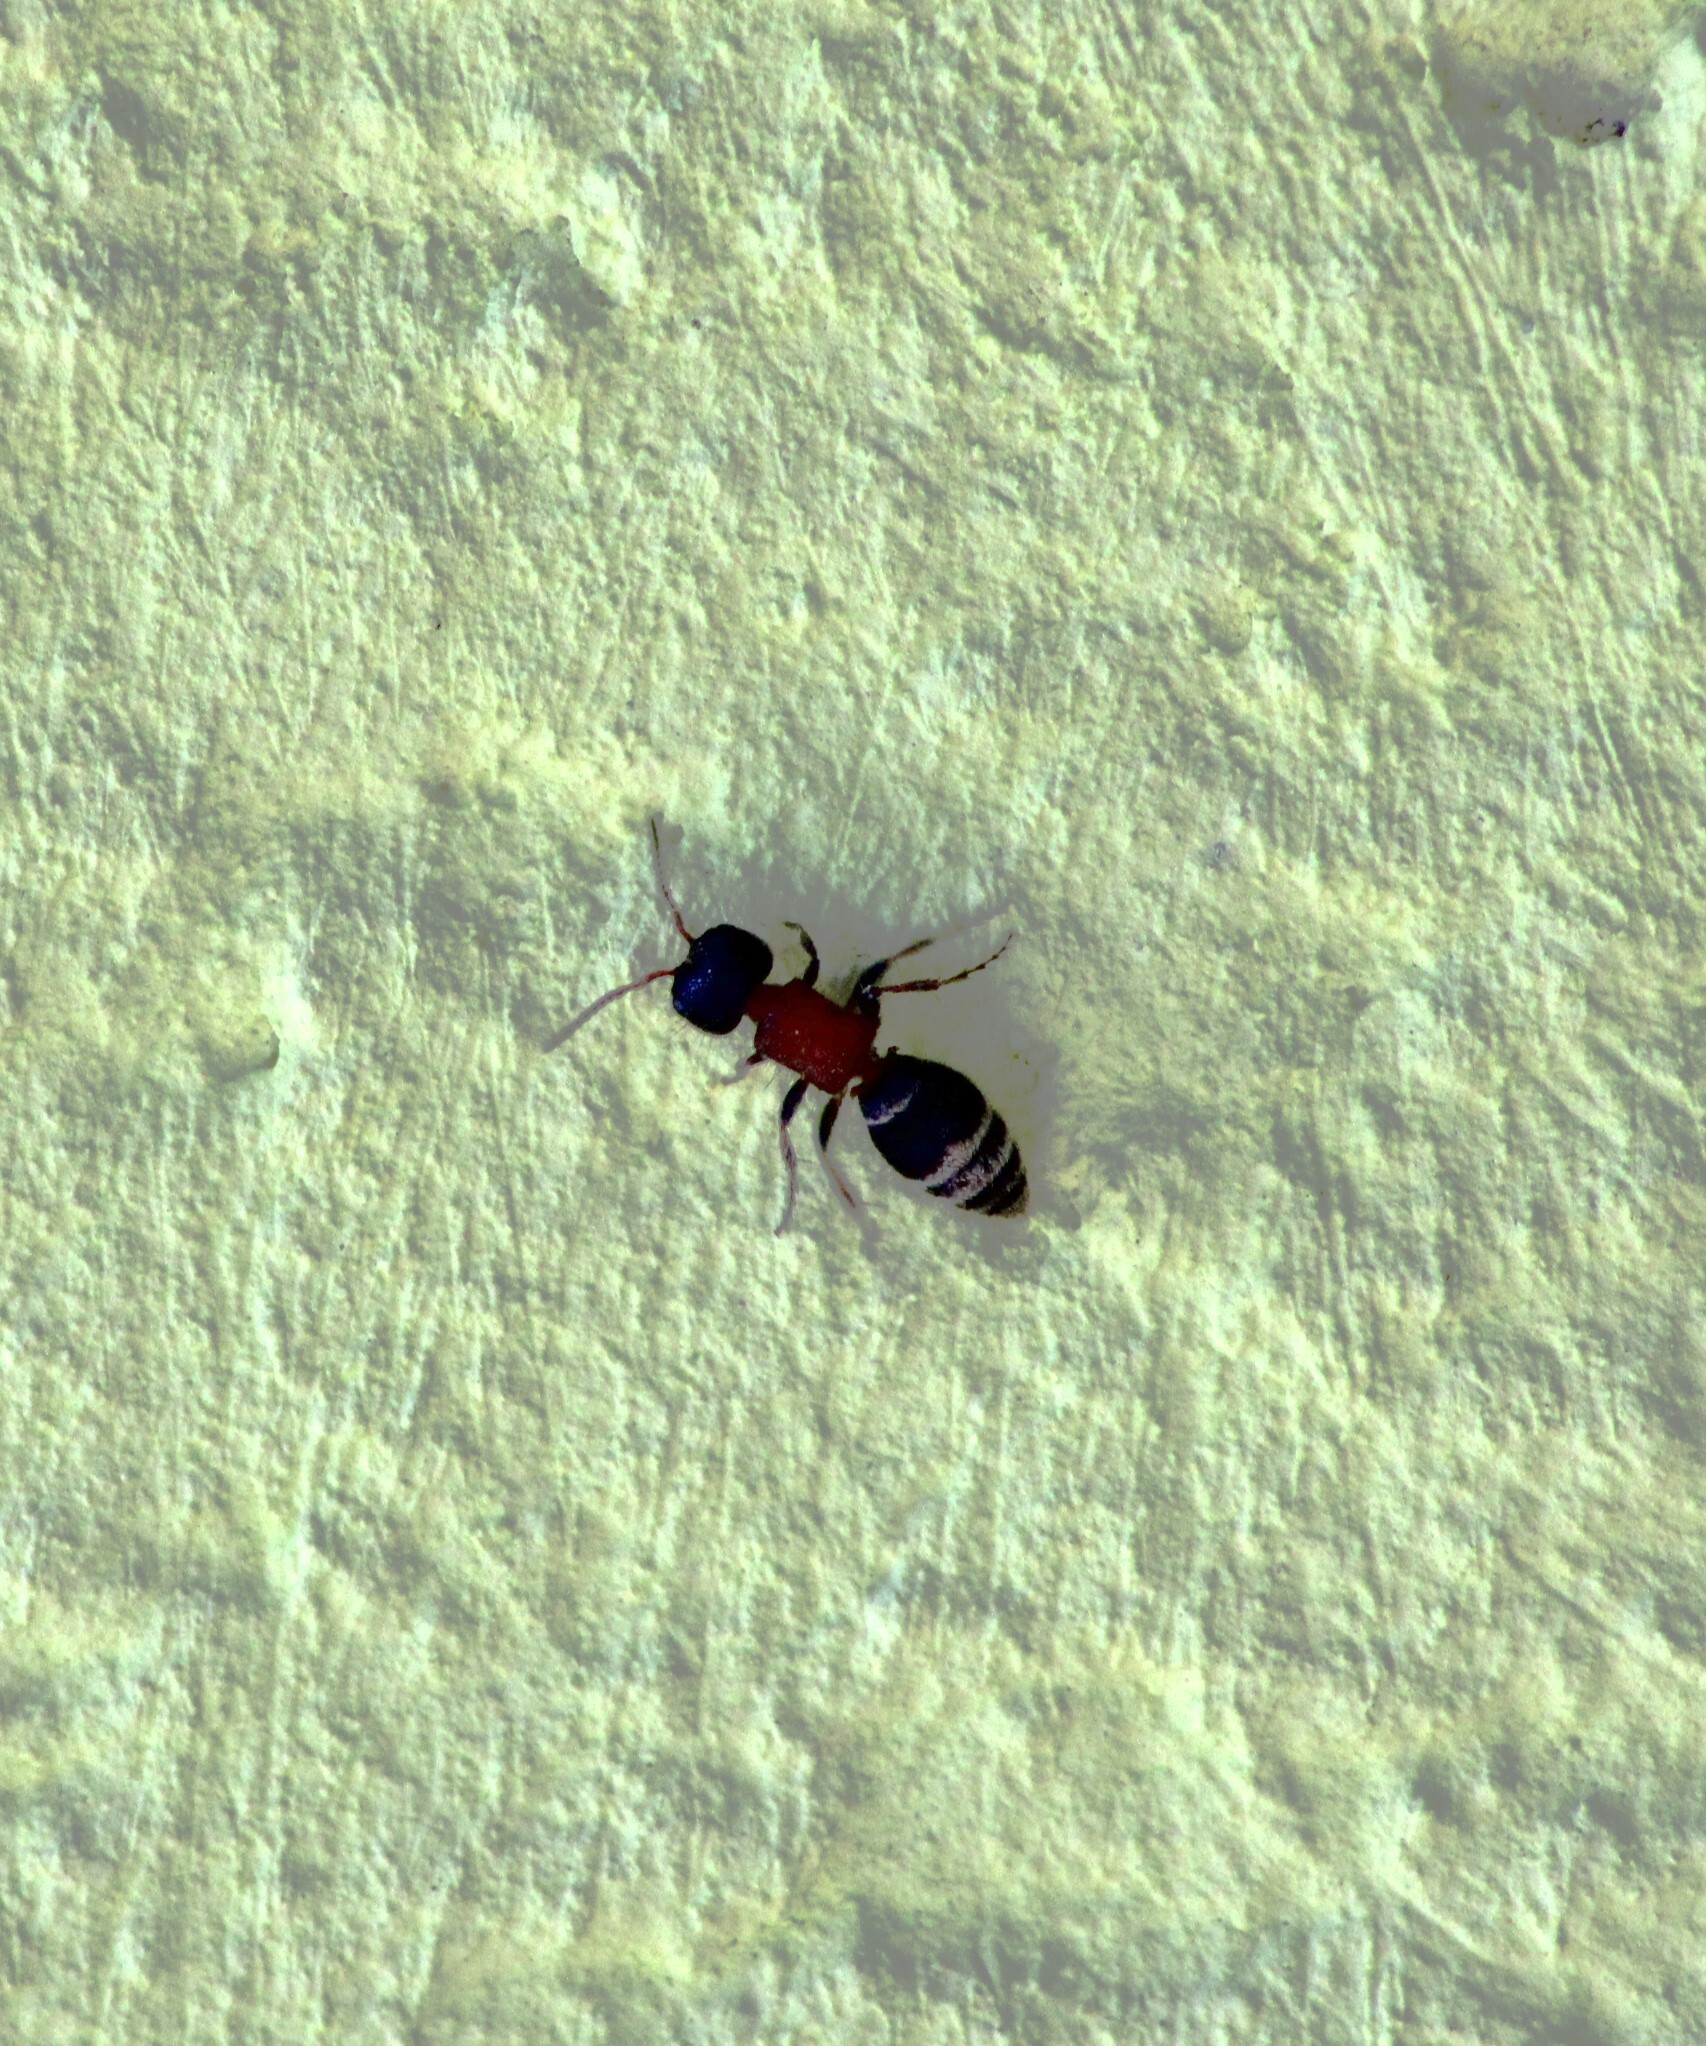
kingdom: Animalia
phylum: Arthropoda
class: Insecta
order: Hymenoptera
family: Mutillidae
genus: Myrmilla
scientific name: Myrmilla calva
